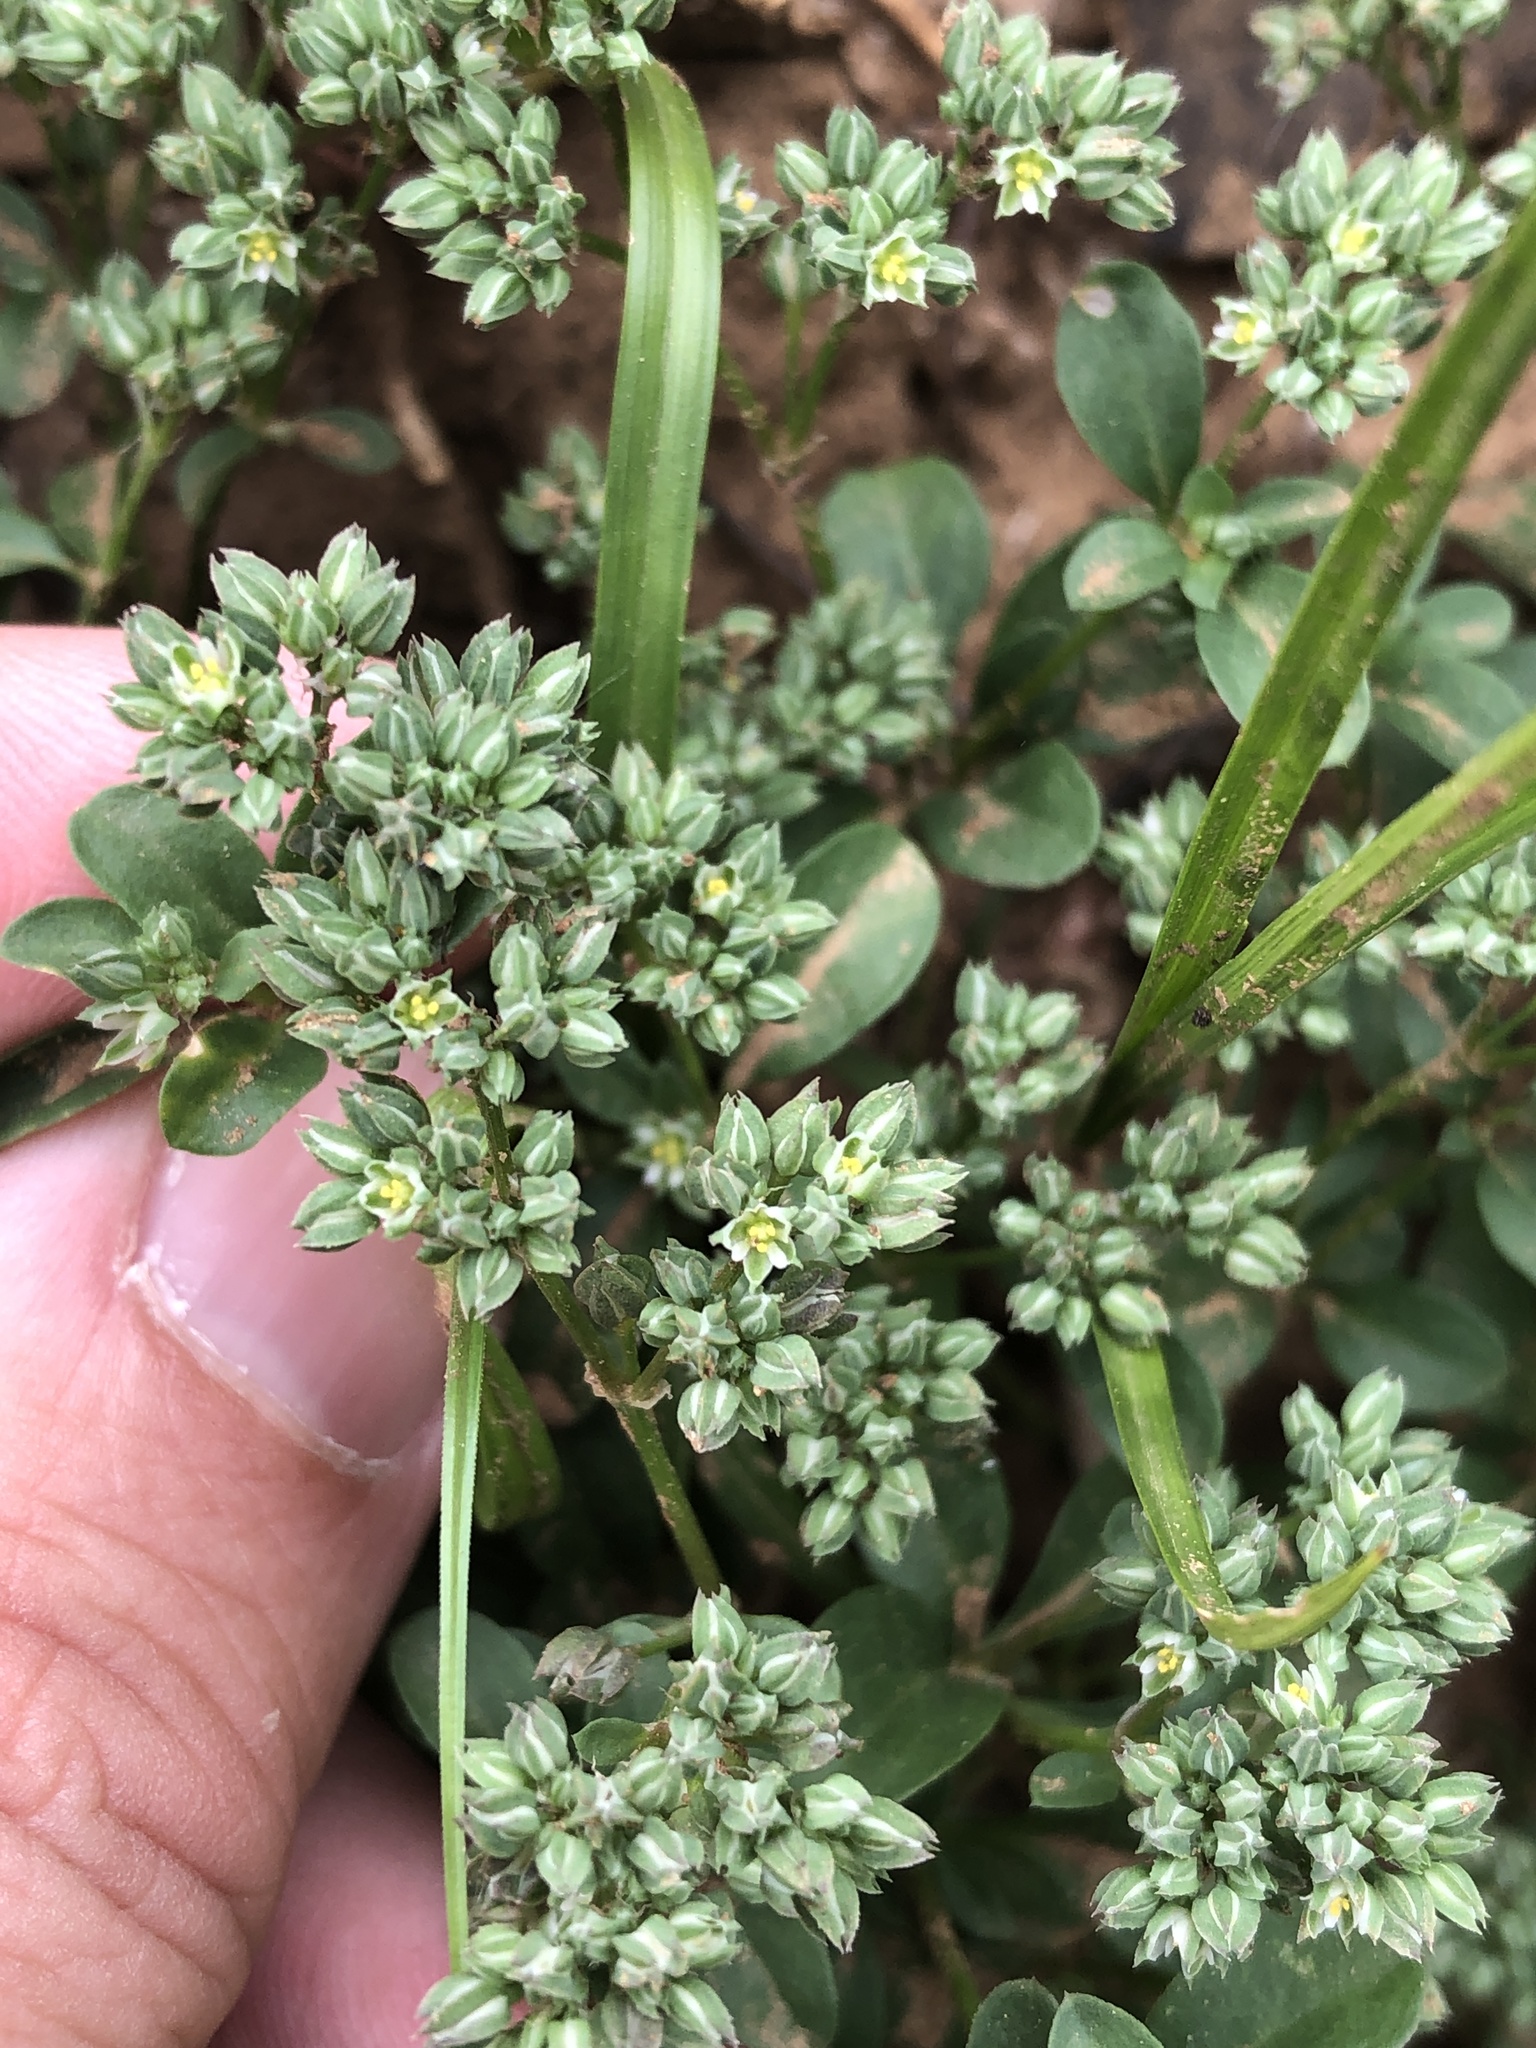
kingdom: Plantae
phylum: Tracheophyta
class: Magnoliopsida
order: Caryophyllales
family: Caryophyllaceae
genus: Polycarpon
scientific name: Polycarpon tetraphyllum
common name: Four-leaved all-seed
